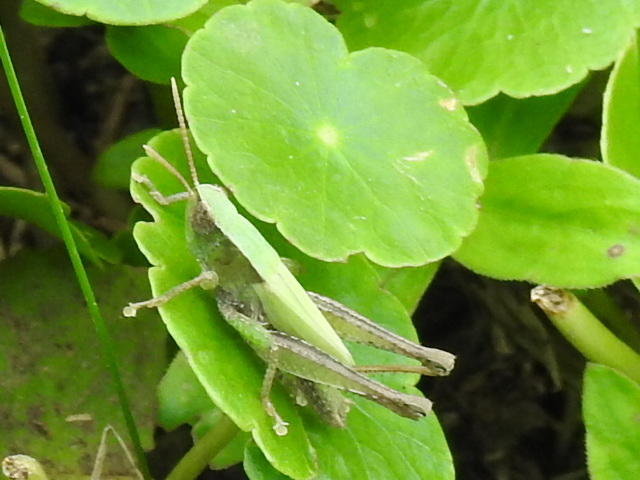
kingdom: Animalia
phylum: Arthropoda
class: Insecta
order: Orthoptera
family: Acrididae
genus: Dichromorpha
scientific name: Dichromorpha viridis
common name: Short-winged green grasshopper
